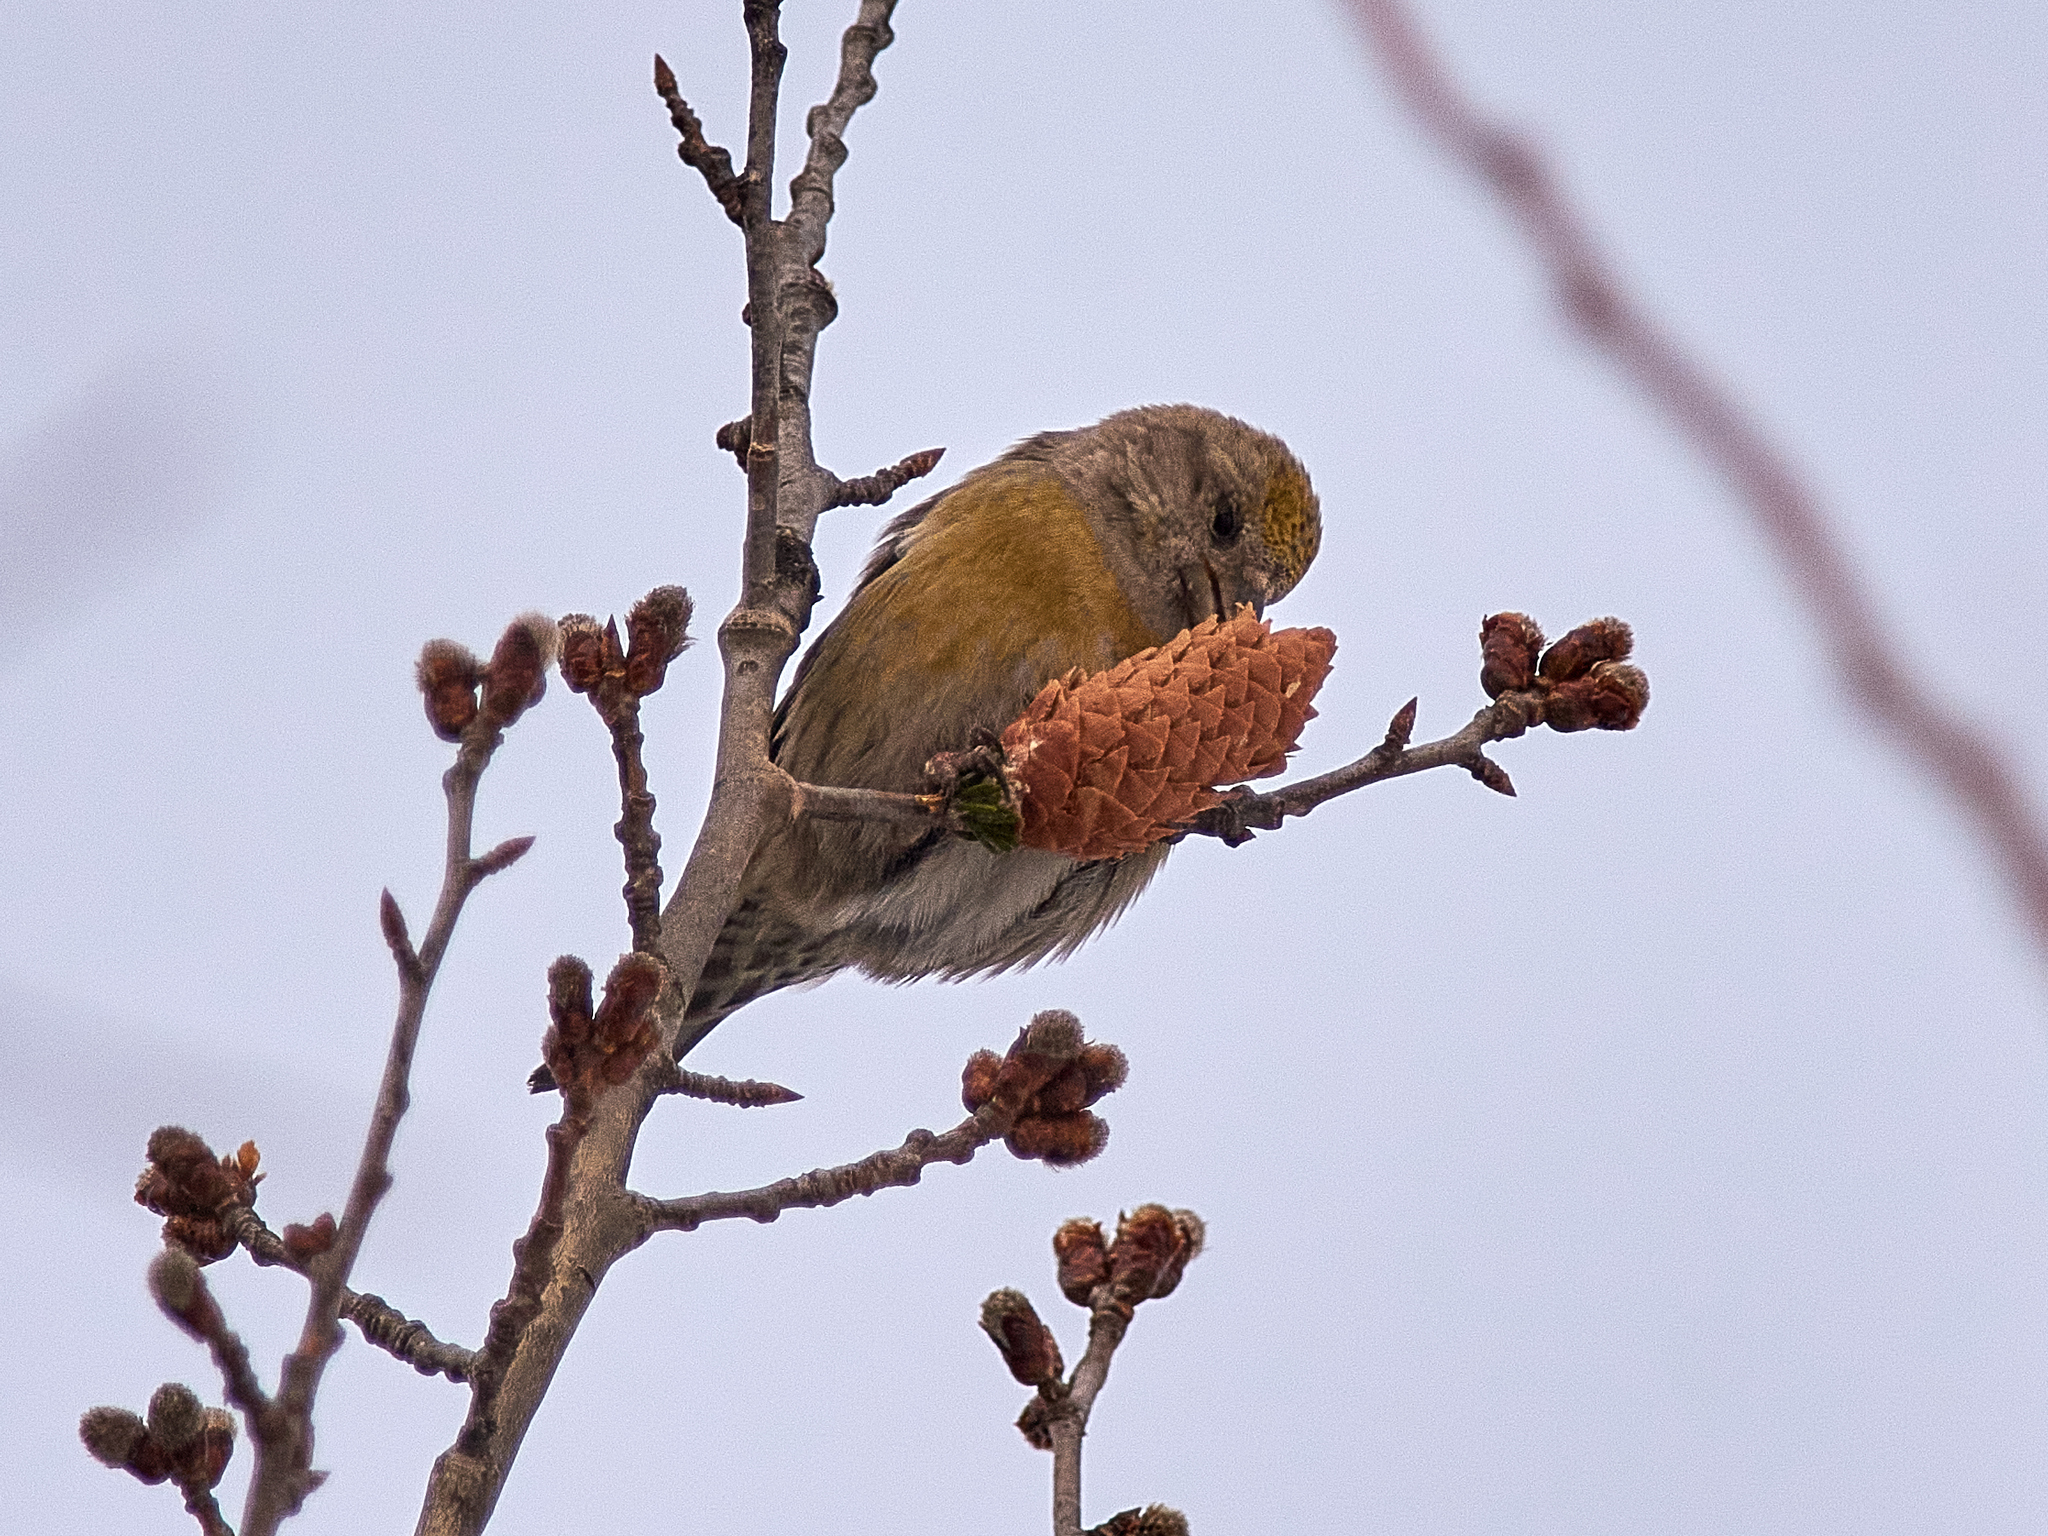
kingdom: Animalia
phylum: Chordata
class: Aves
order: Passeriformes
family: Fringillidae
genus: Loxia
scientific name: Loxia curvirostra
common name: Red crossbill
